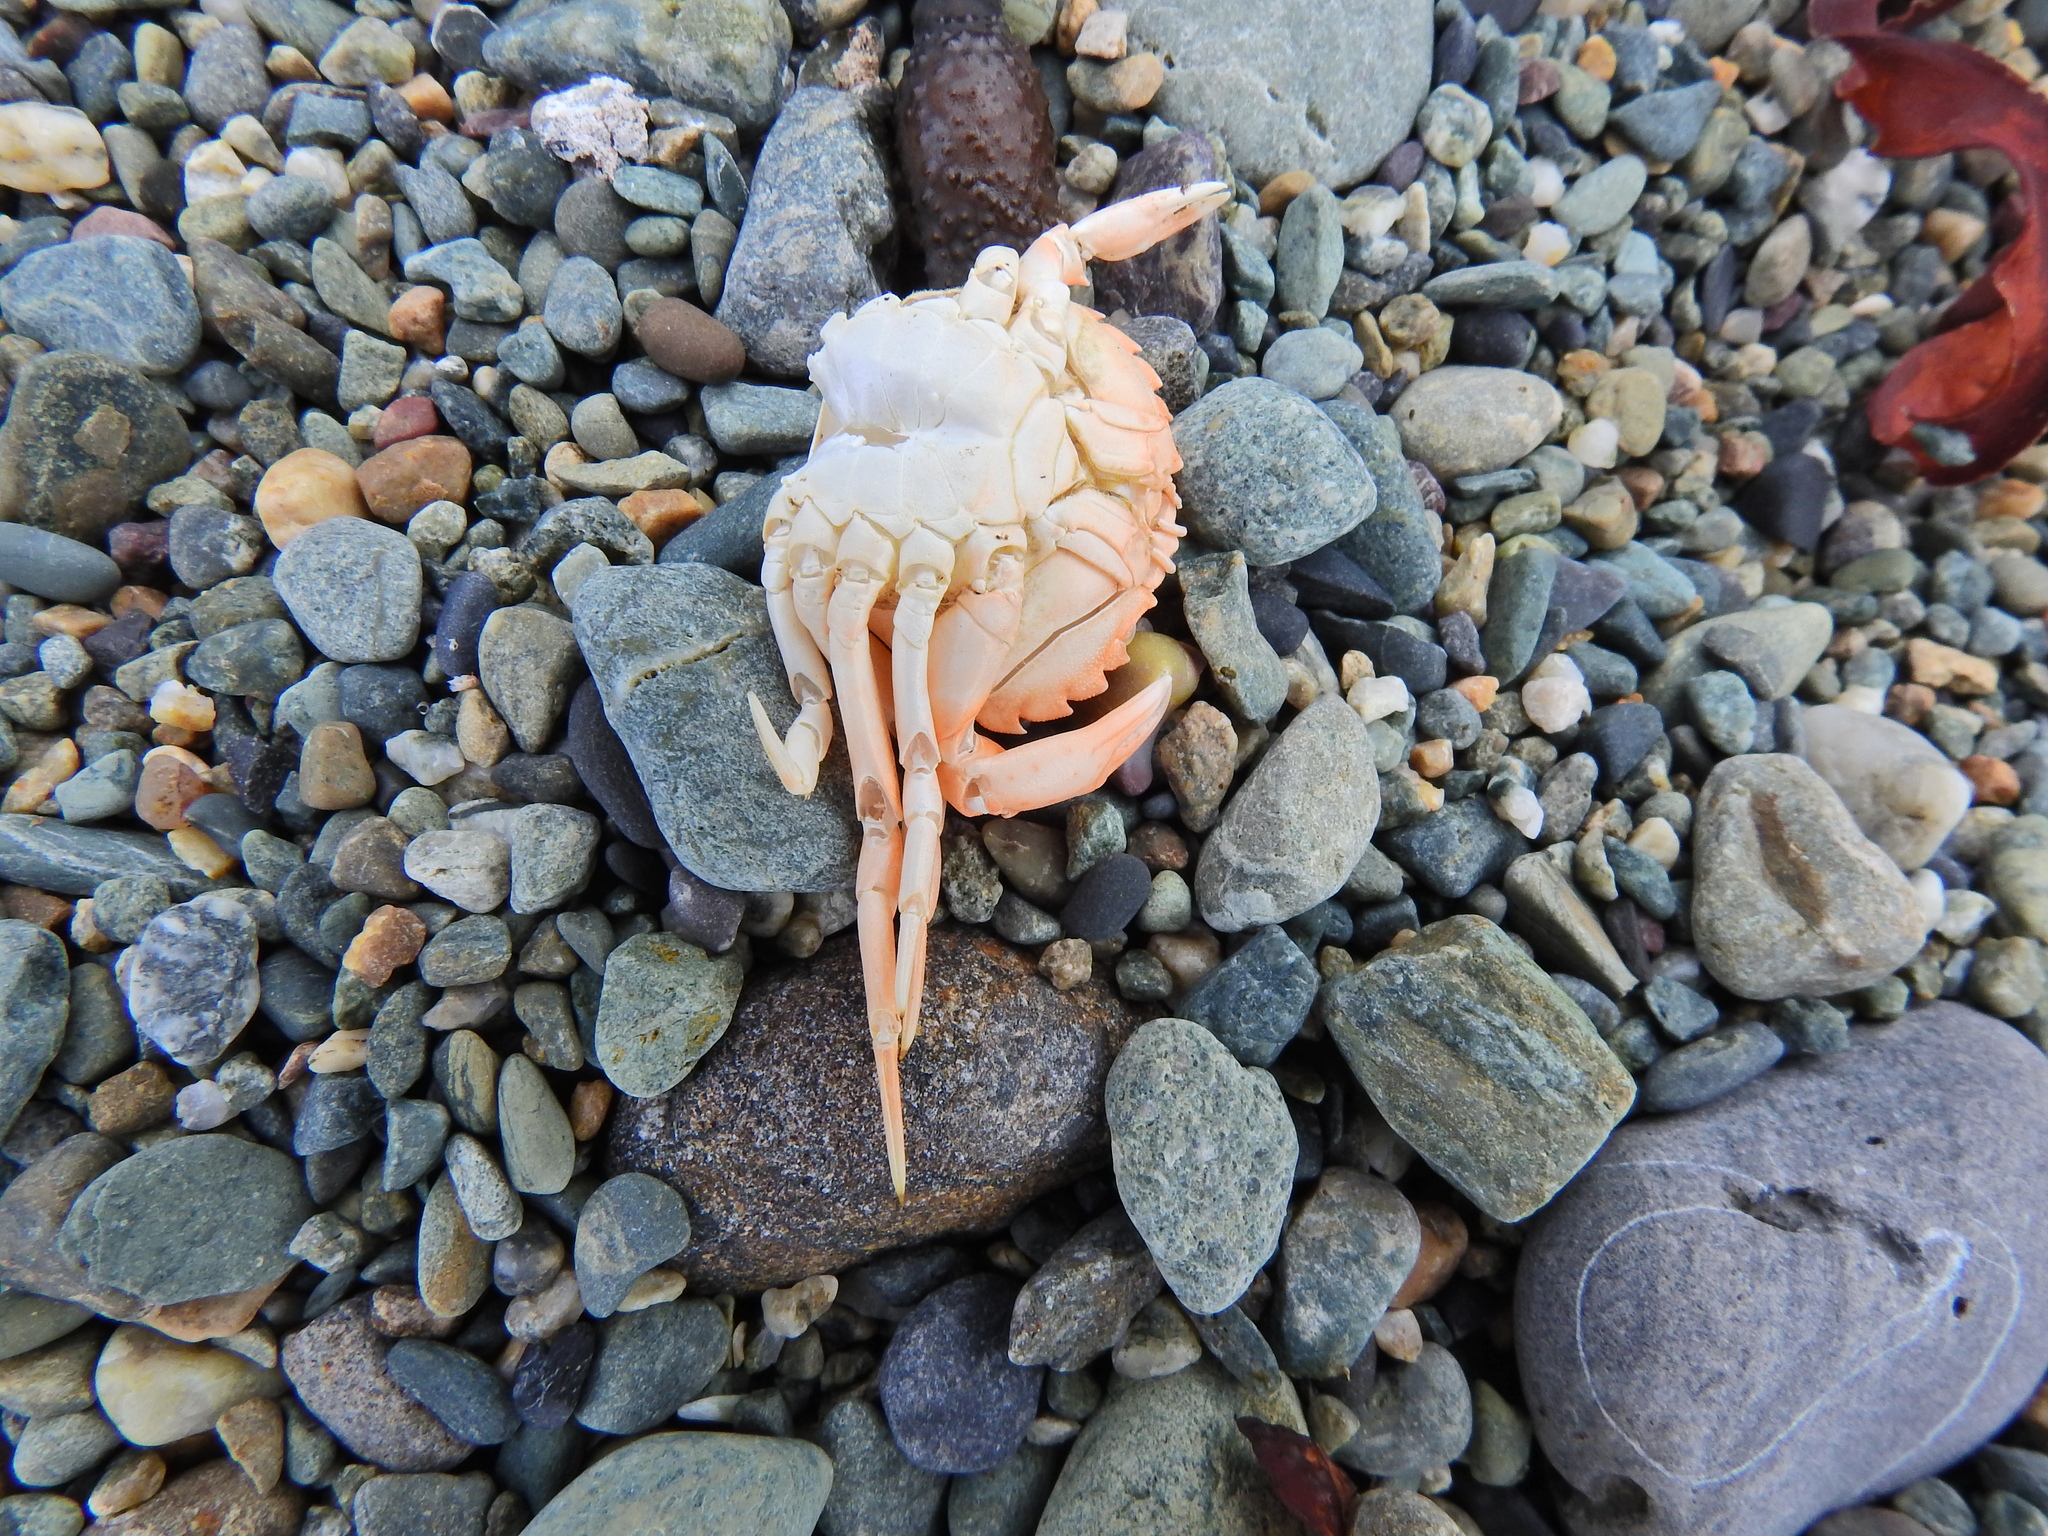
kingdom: Animalia
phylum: Arthropoda
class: Malacostraca
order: Decapoda
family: Carcinidae
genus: Carcinus
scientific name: Carcinus maenas
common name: European green crab
